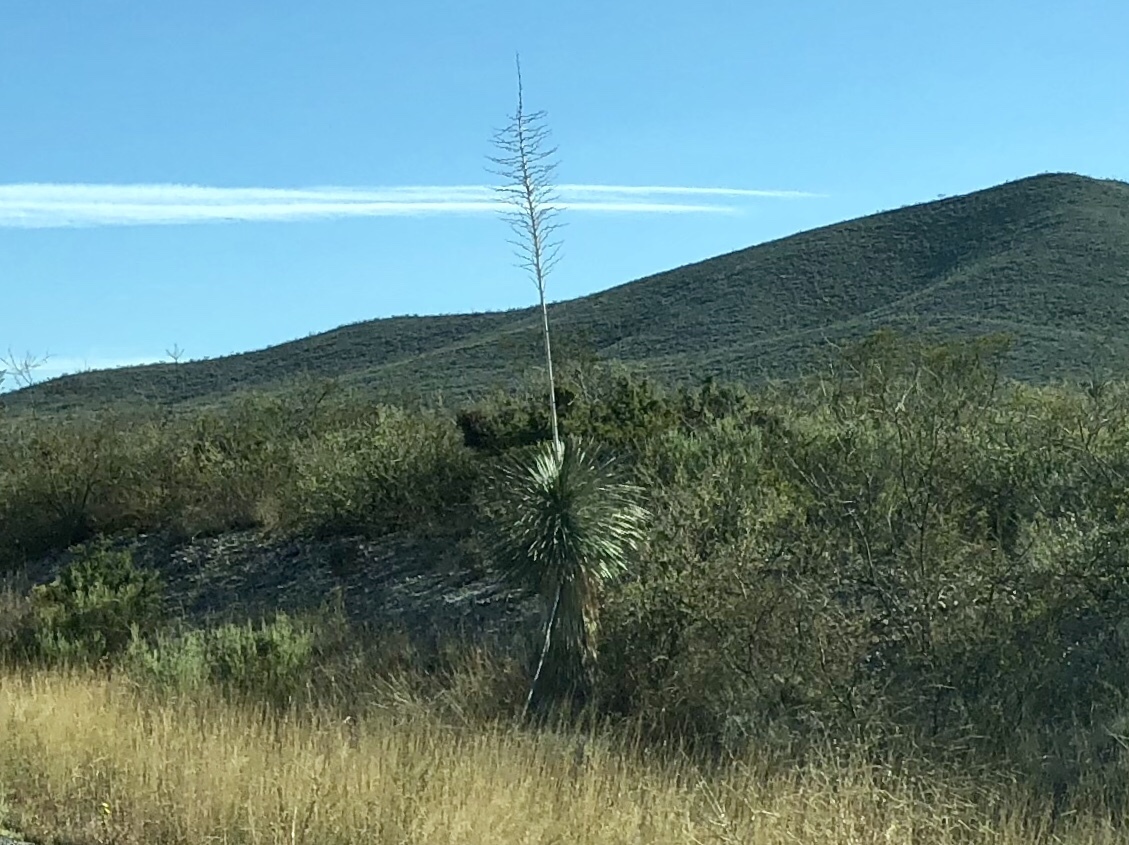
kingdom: Plantae
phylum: Tracheophyta
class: Liliopsida
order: Asparagales
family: Asparagaceae
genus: Yucca
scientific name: Yucca elata
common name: Palmella
